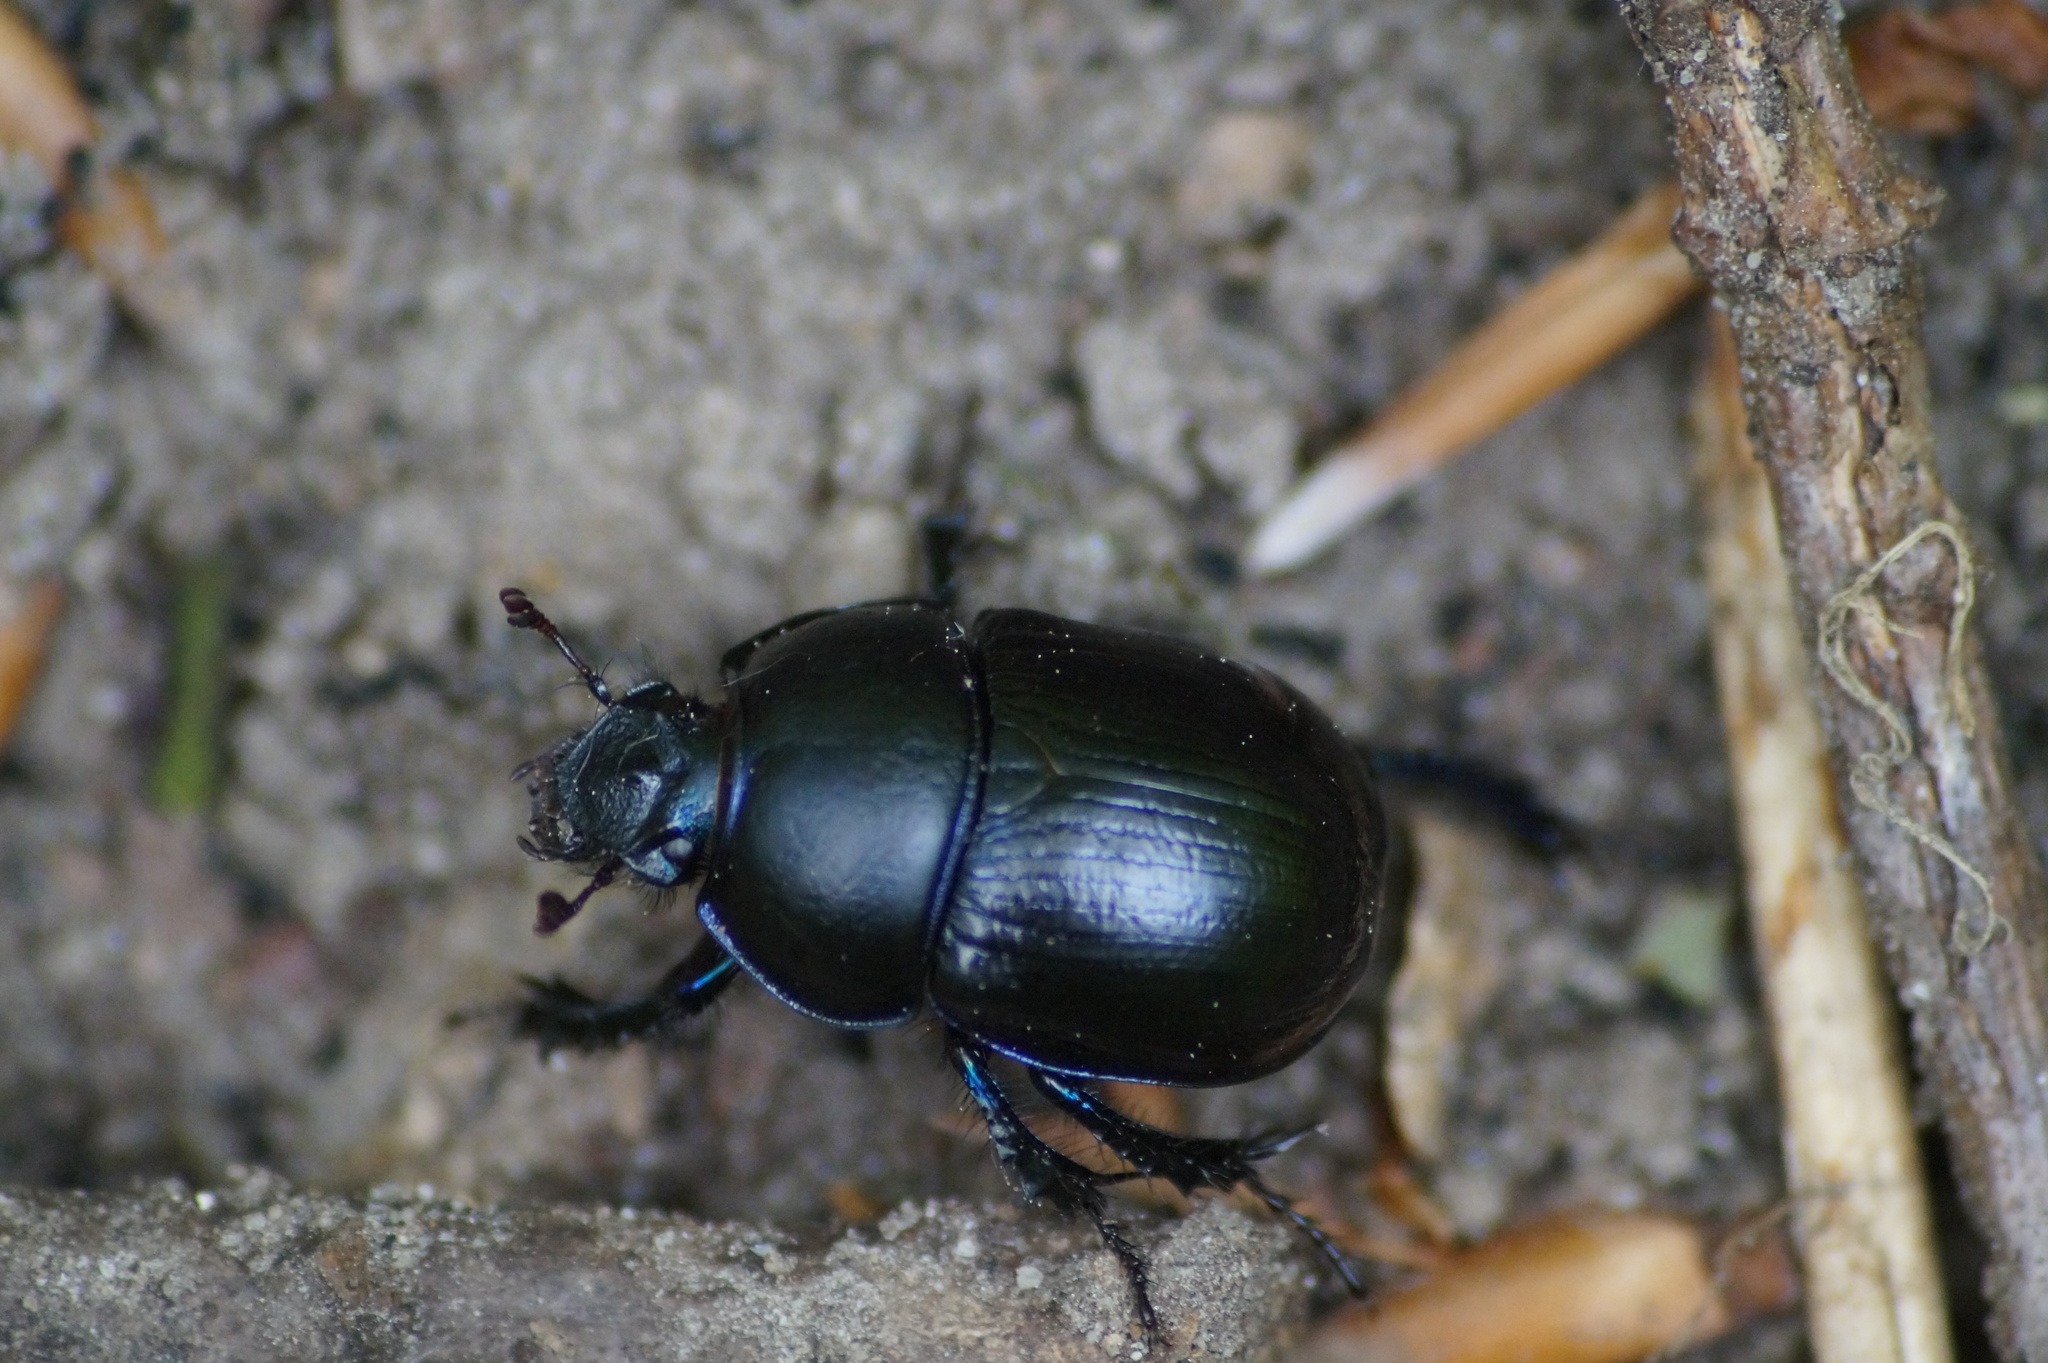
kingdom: Animalia
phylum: Arthropoda
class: Insecta
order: Coleoptera
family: Geotrupidae
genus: Anoplotrupes
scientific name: Anoplotrupes stercorosus
